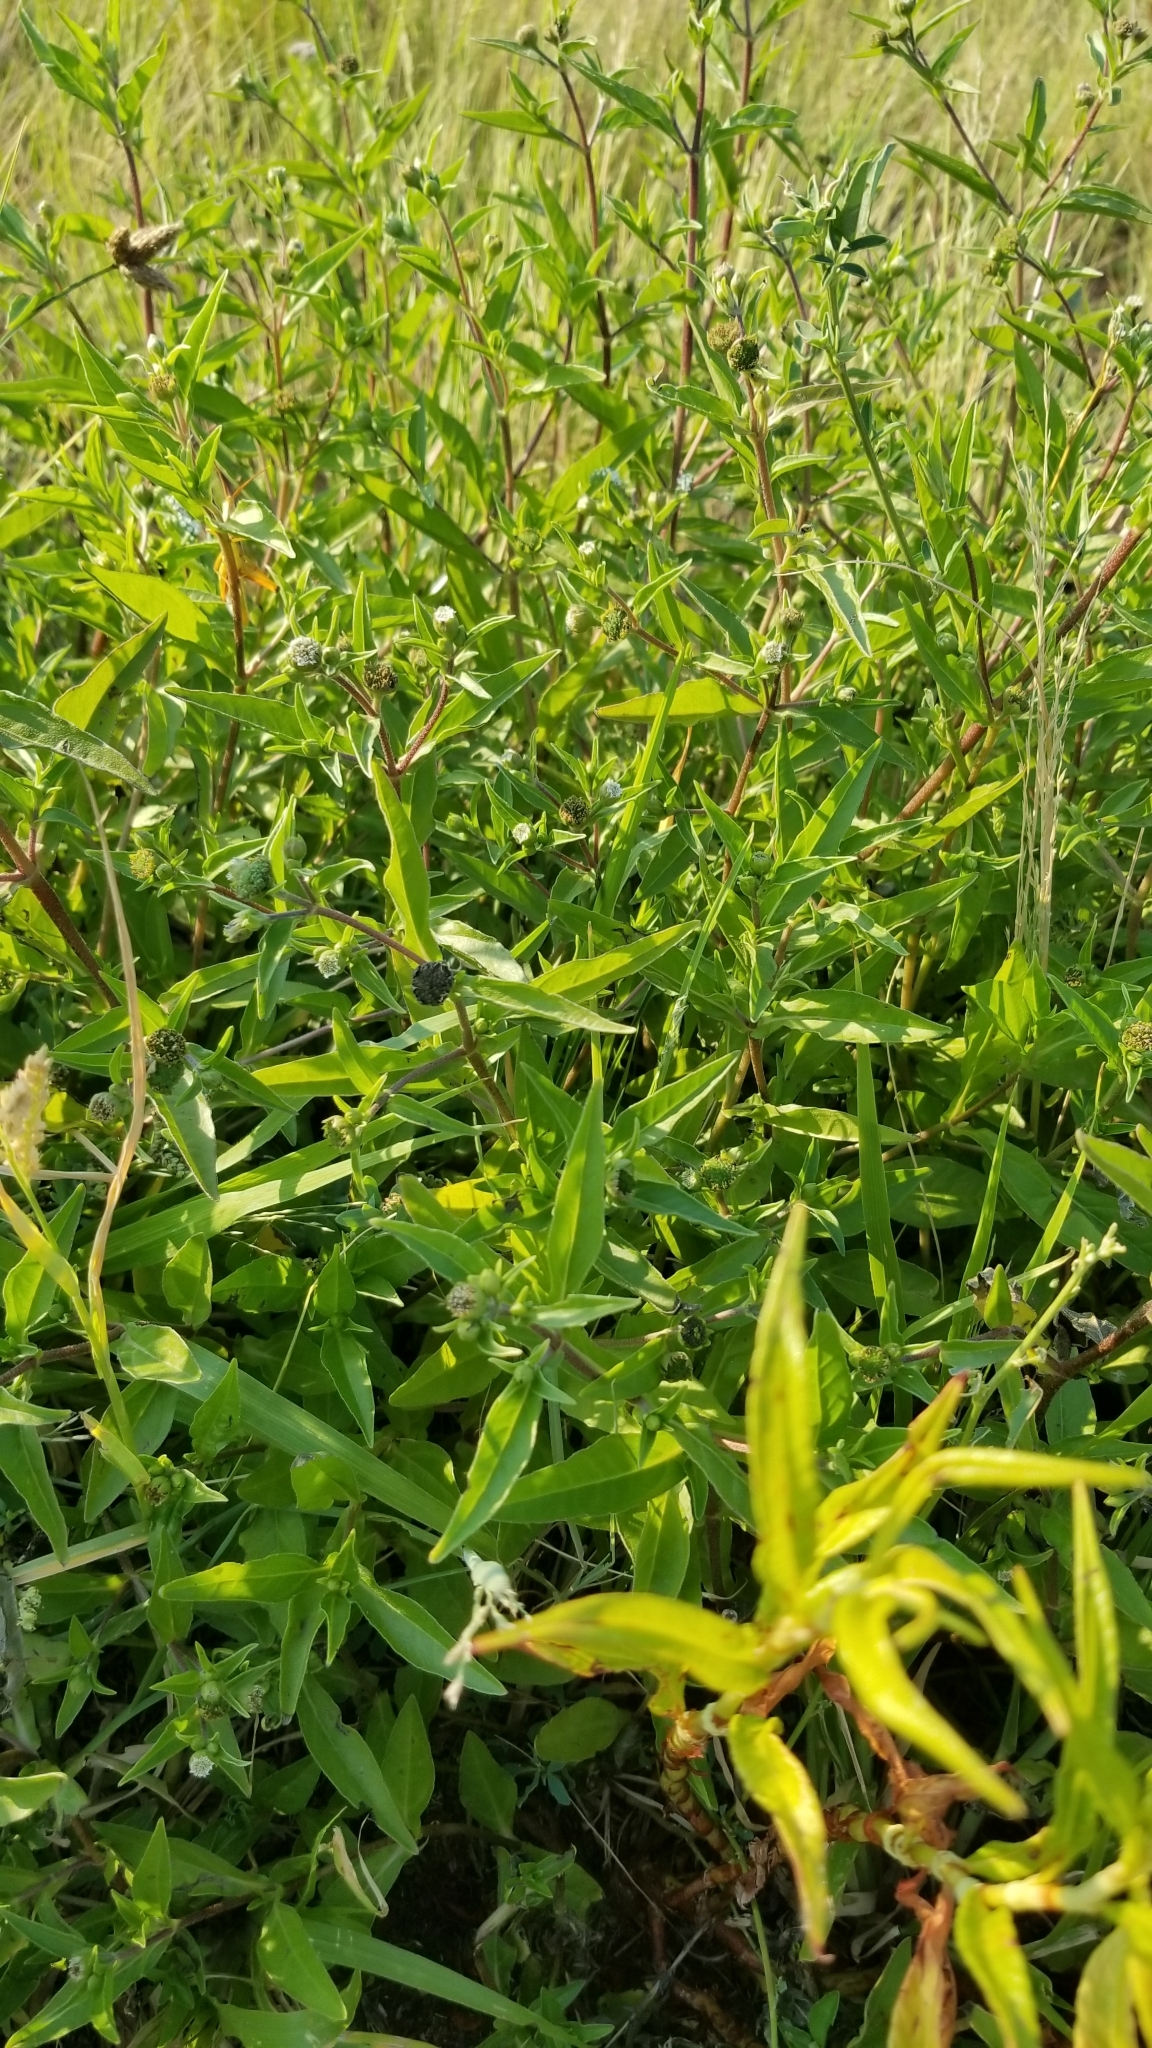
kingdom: Plantae
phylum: Tracheophyta
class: Magnoliopsida
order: Asterales
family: Asteraceae
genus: Eclipta
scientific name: Eclipta prostrata
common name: False daisy
